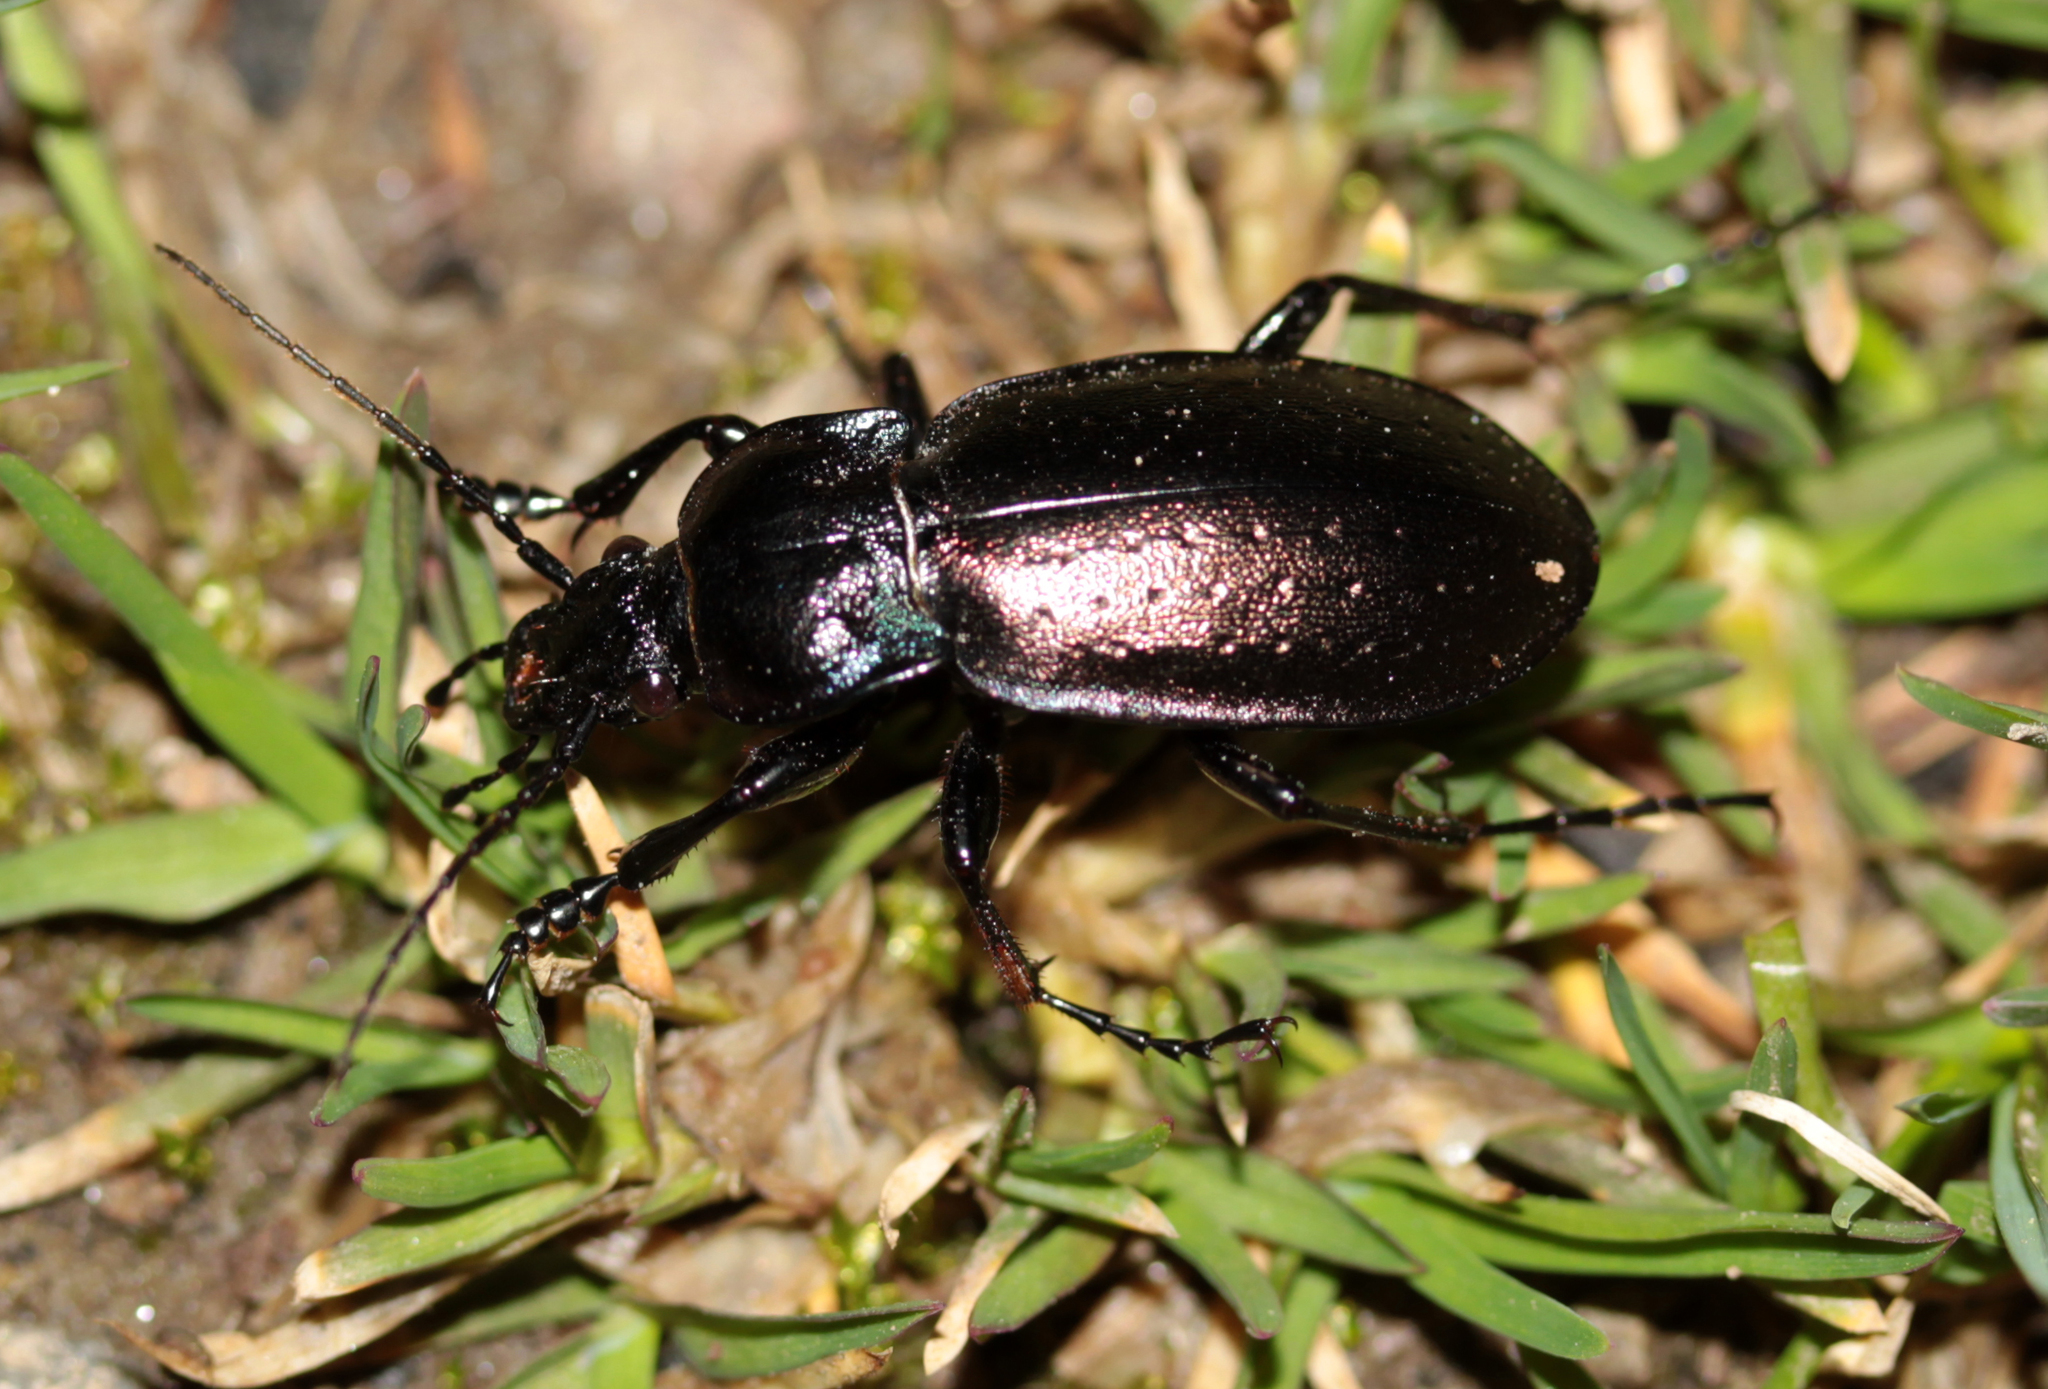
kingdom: Animalia
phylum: Arthropoda
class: Insecta
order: Coleoptera
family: Carabidae
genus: Carabus
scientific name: Carabus nemoralis
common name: European ground beetle
